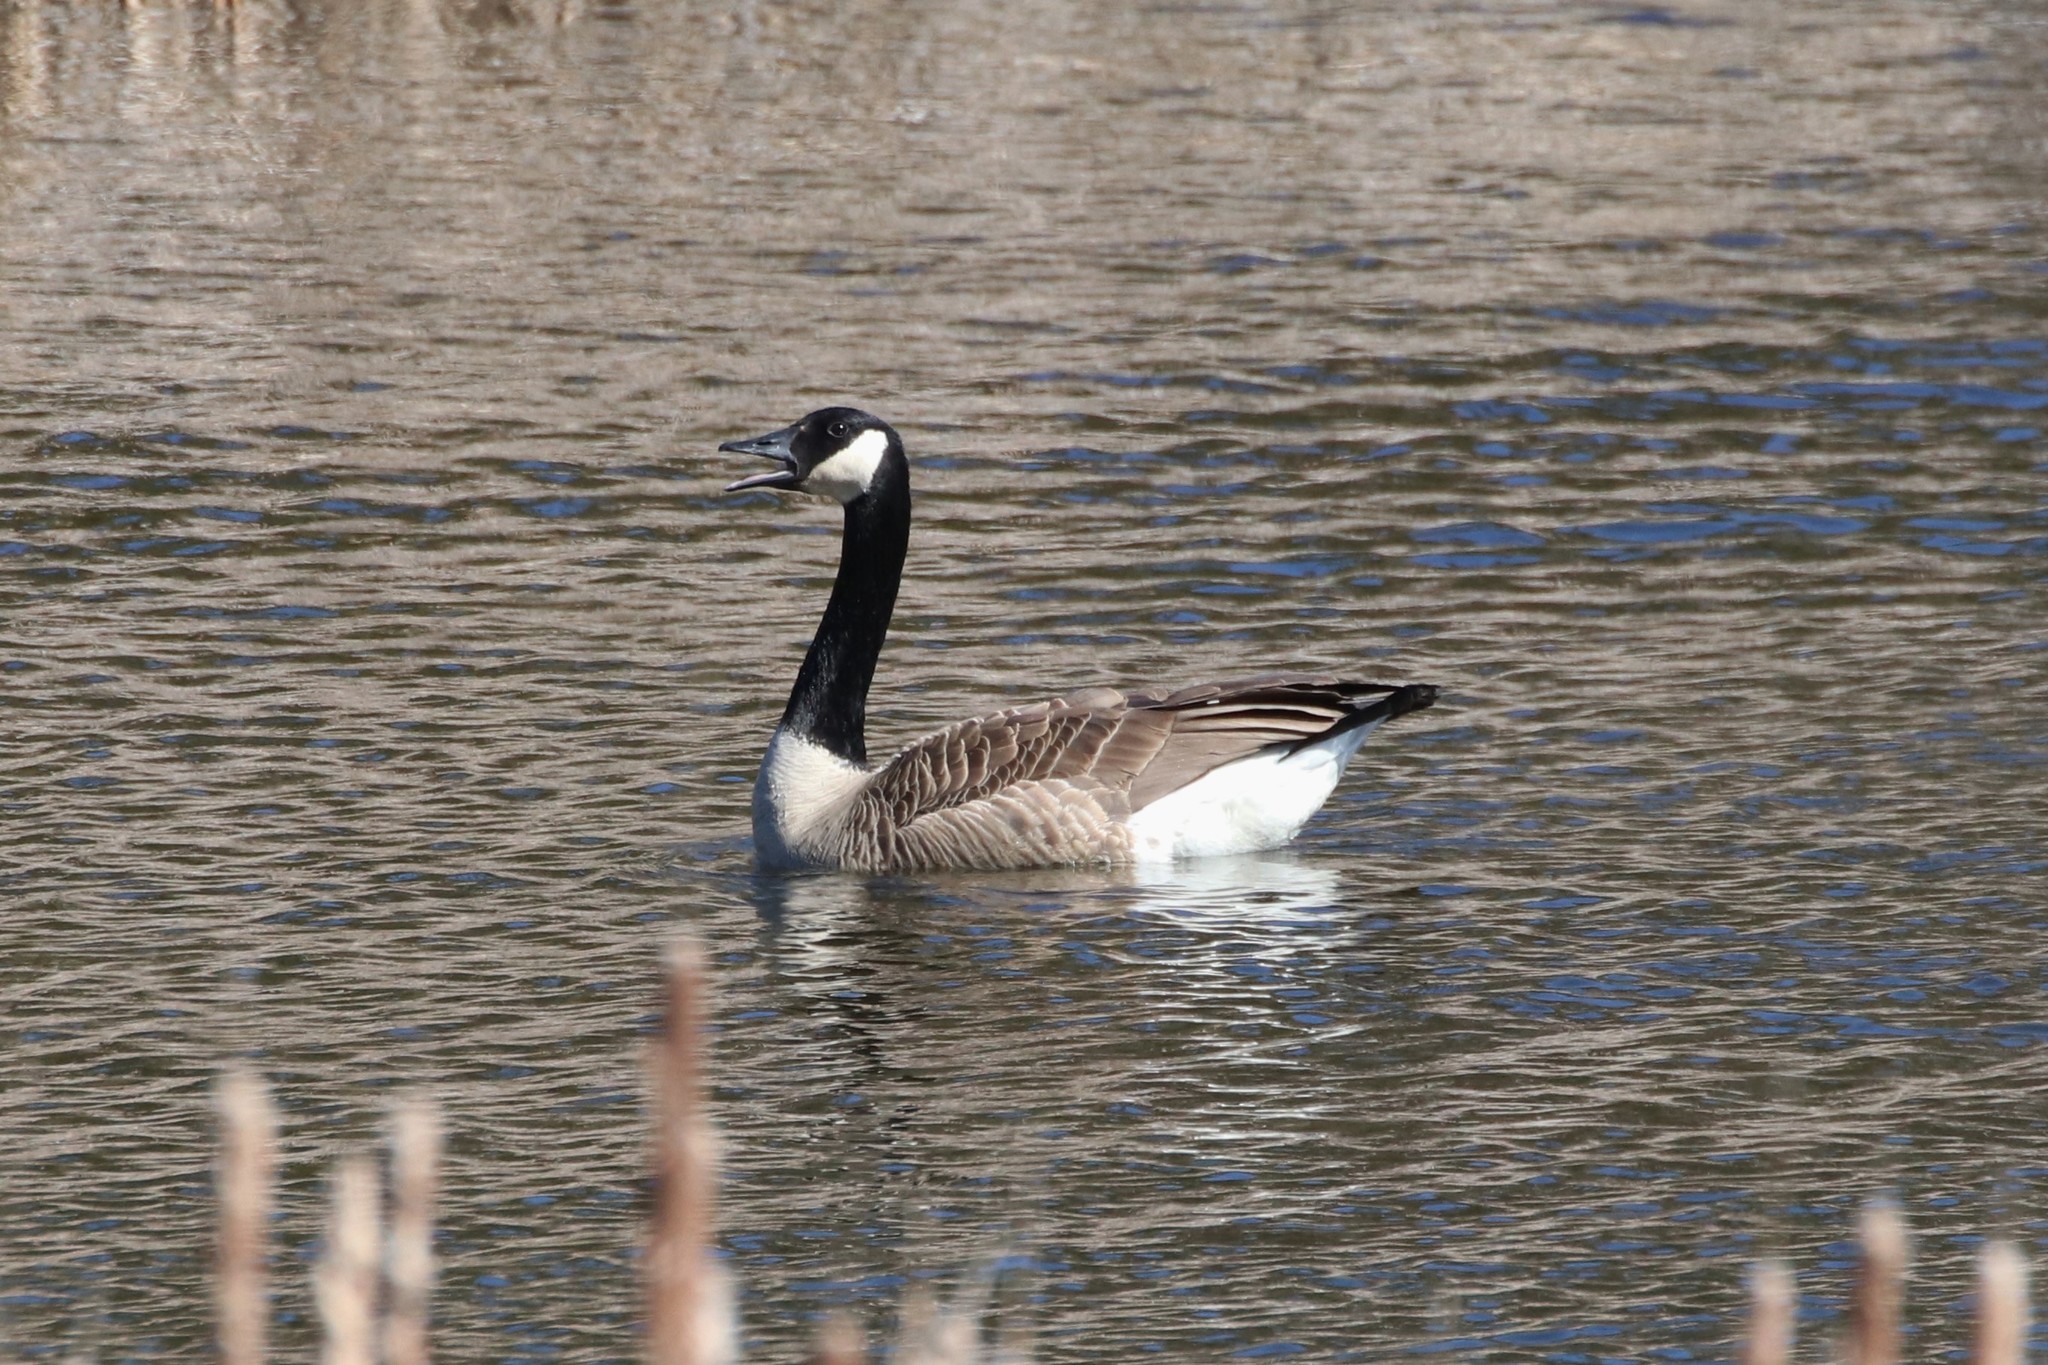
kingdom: Animalia
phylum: Chordata
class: Aves
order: Anseriformes
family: Anatidae
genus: Branta
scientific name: Branta canadensis
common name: Canada goose
